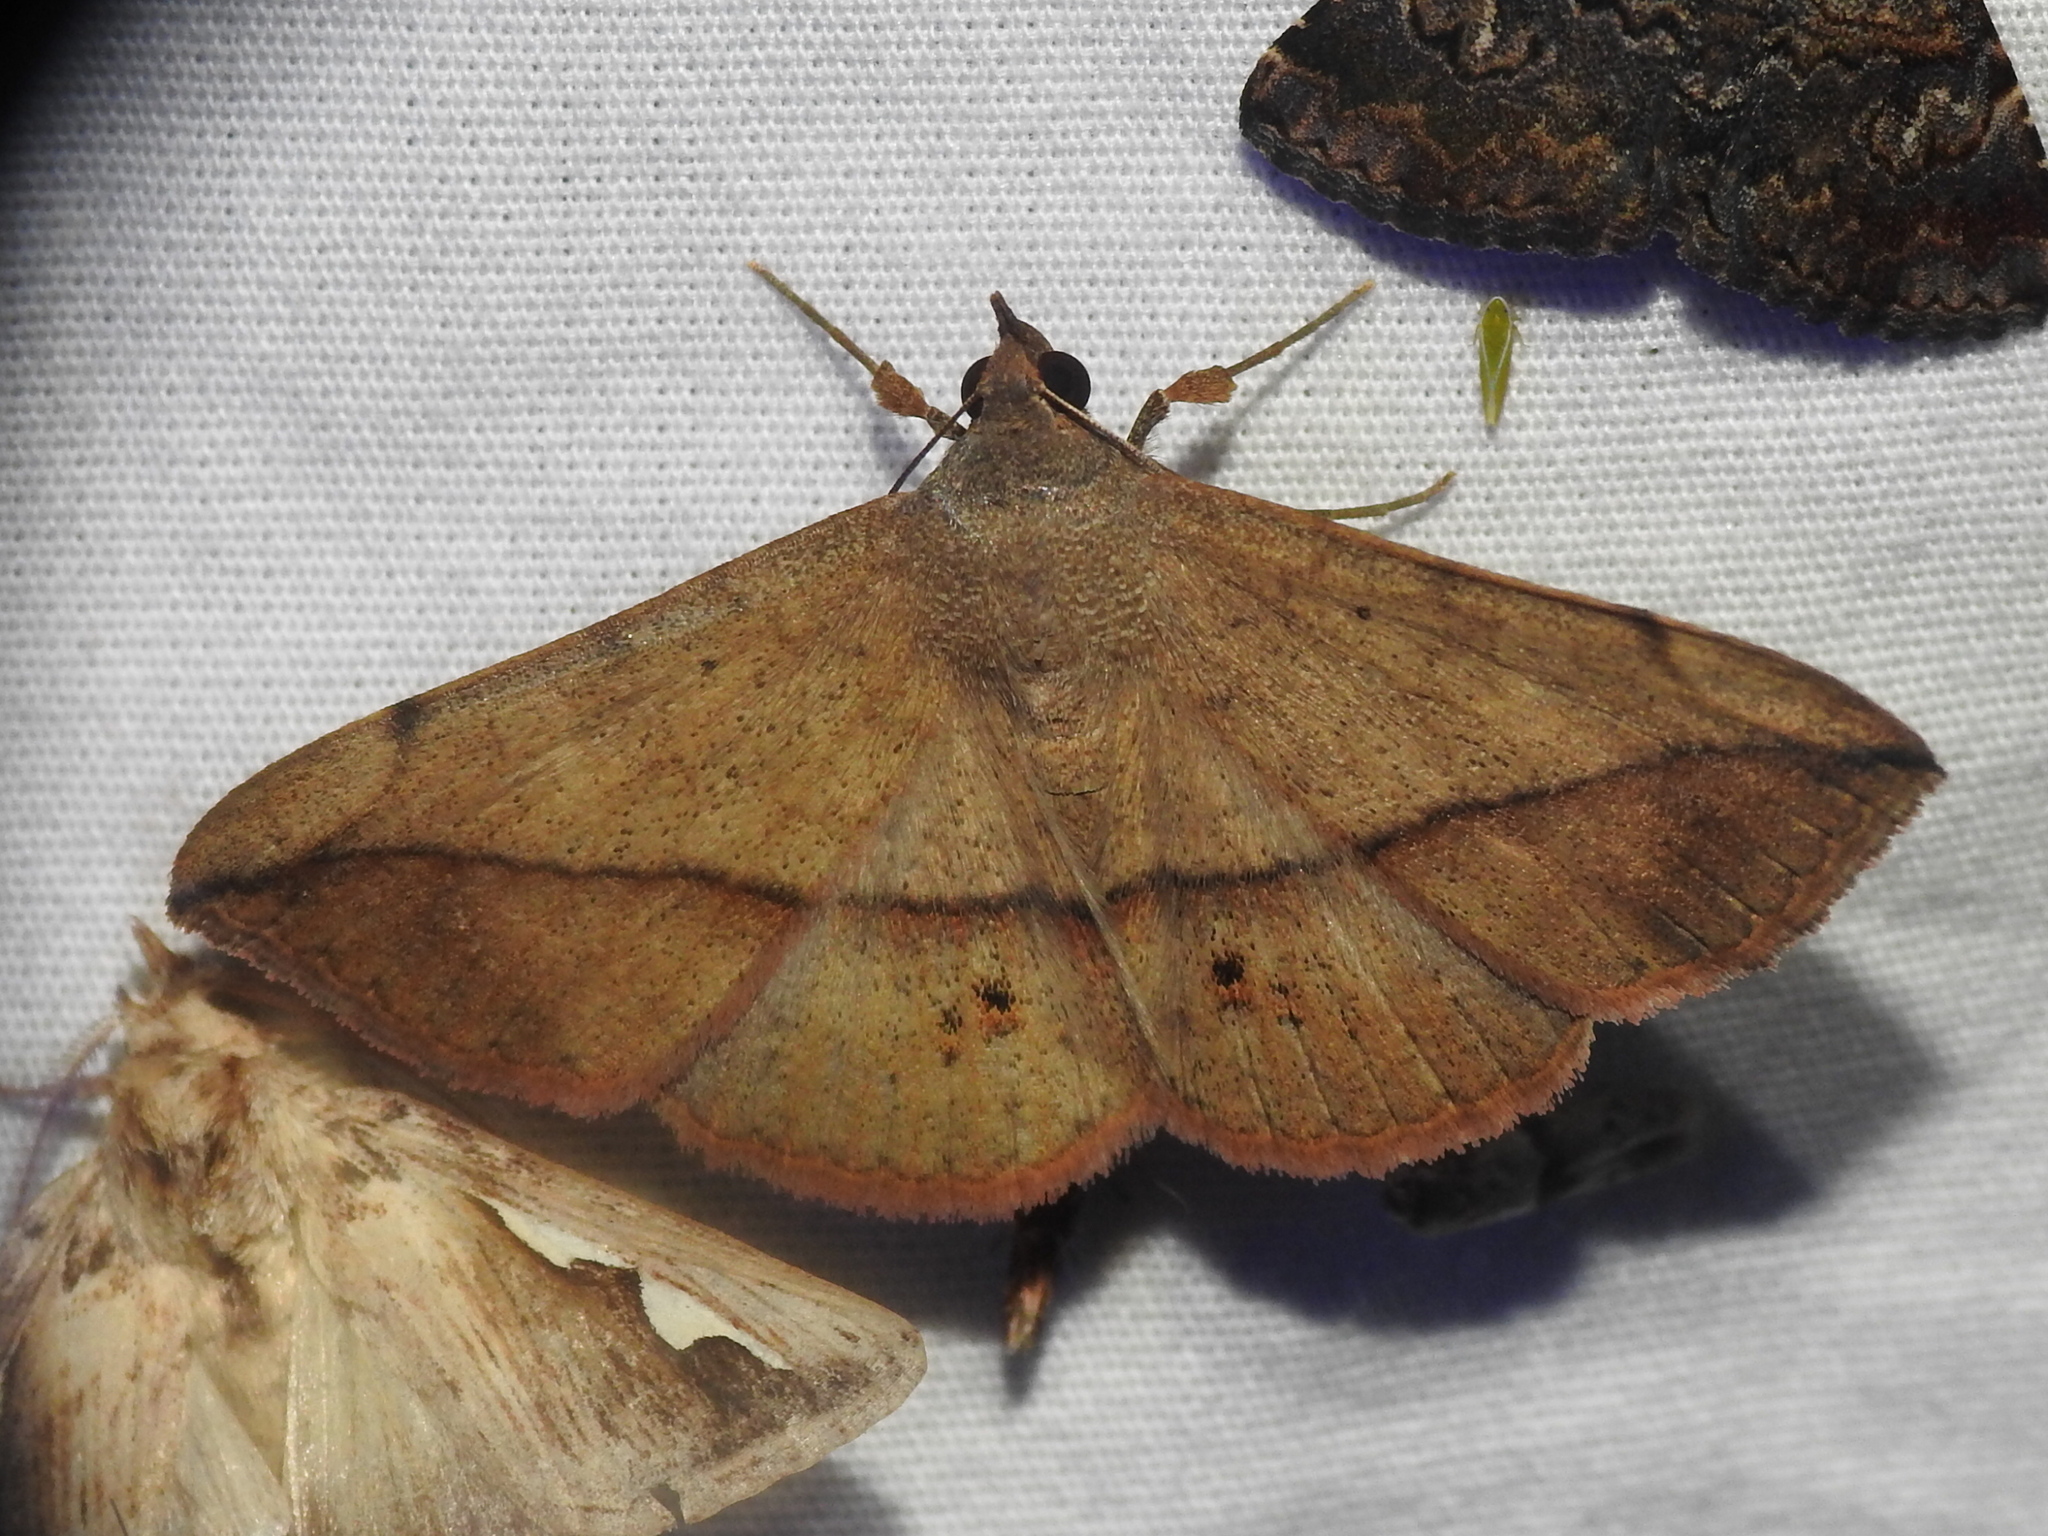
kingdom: Animalia
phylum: Arthropoda
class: Insecta
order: Lepidoptera
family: Erebidae
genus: Anticarsia
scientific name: Anticarsia gemmatalis
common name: Cutworm moth
